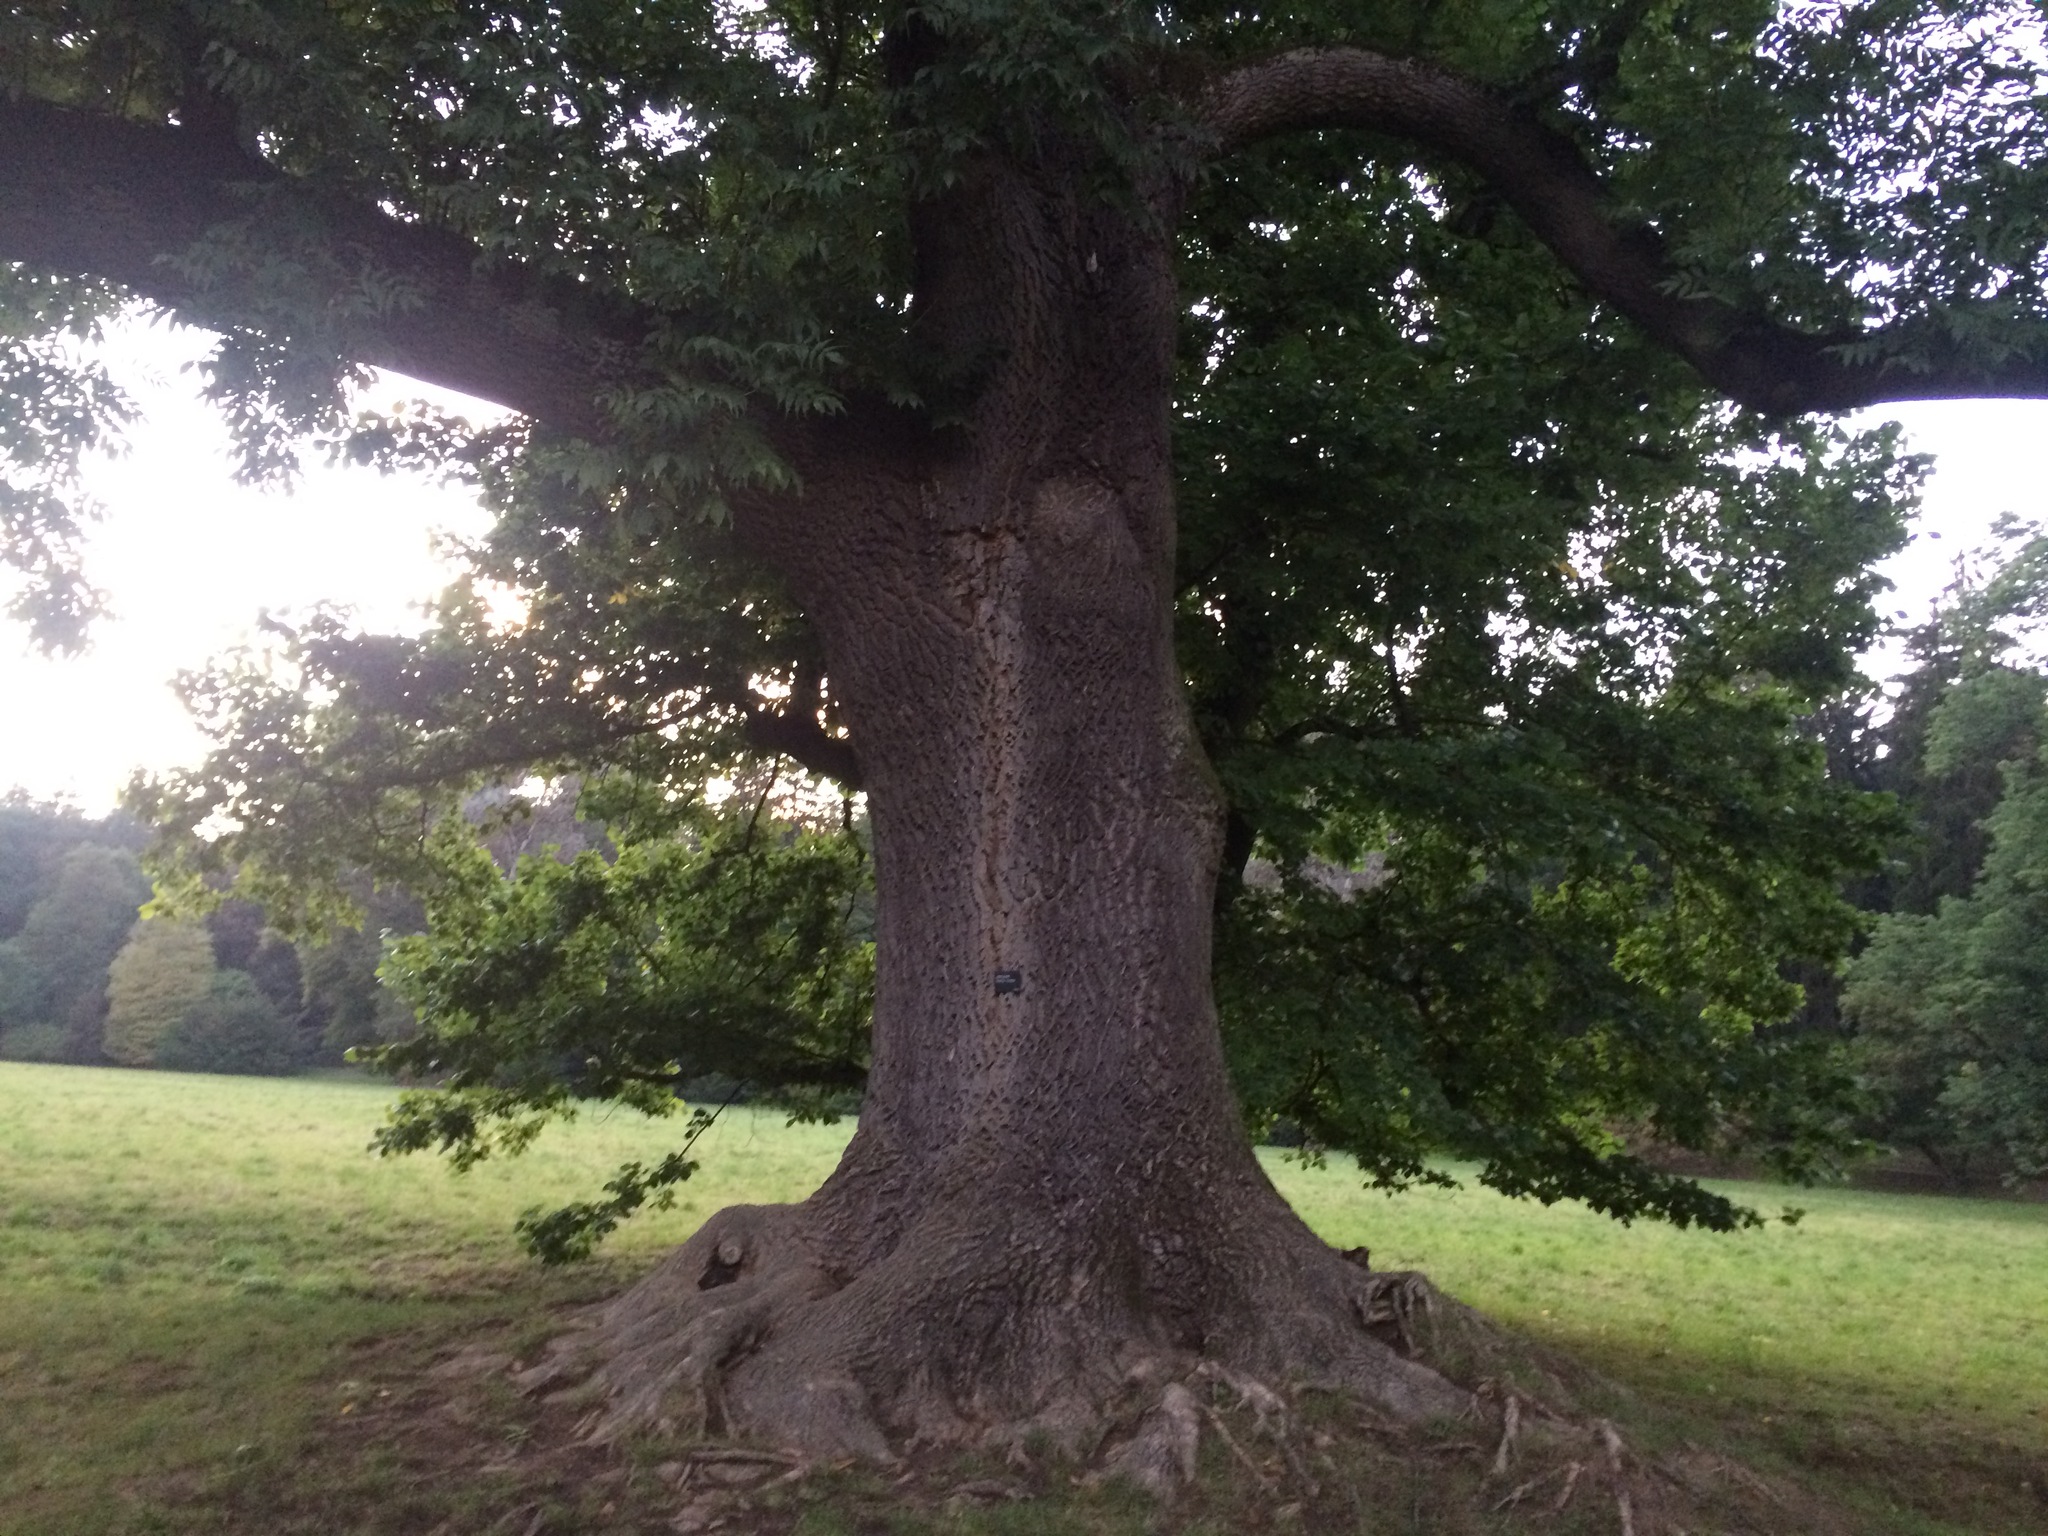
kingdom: Plantae
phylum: Tracheophyta
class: Magnoliopsida
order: Lamiales
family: Oleaceae
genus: Fraxinus
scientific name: Fraxinus excelsior
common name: European ash
